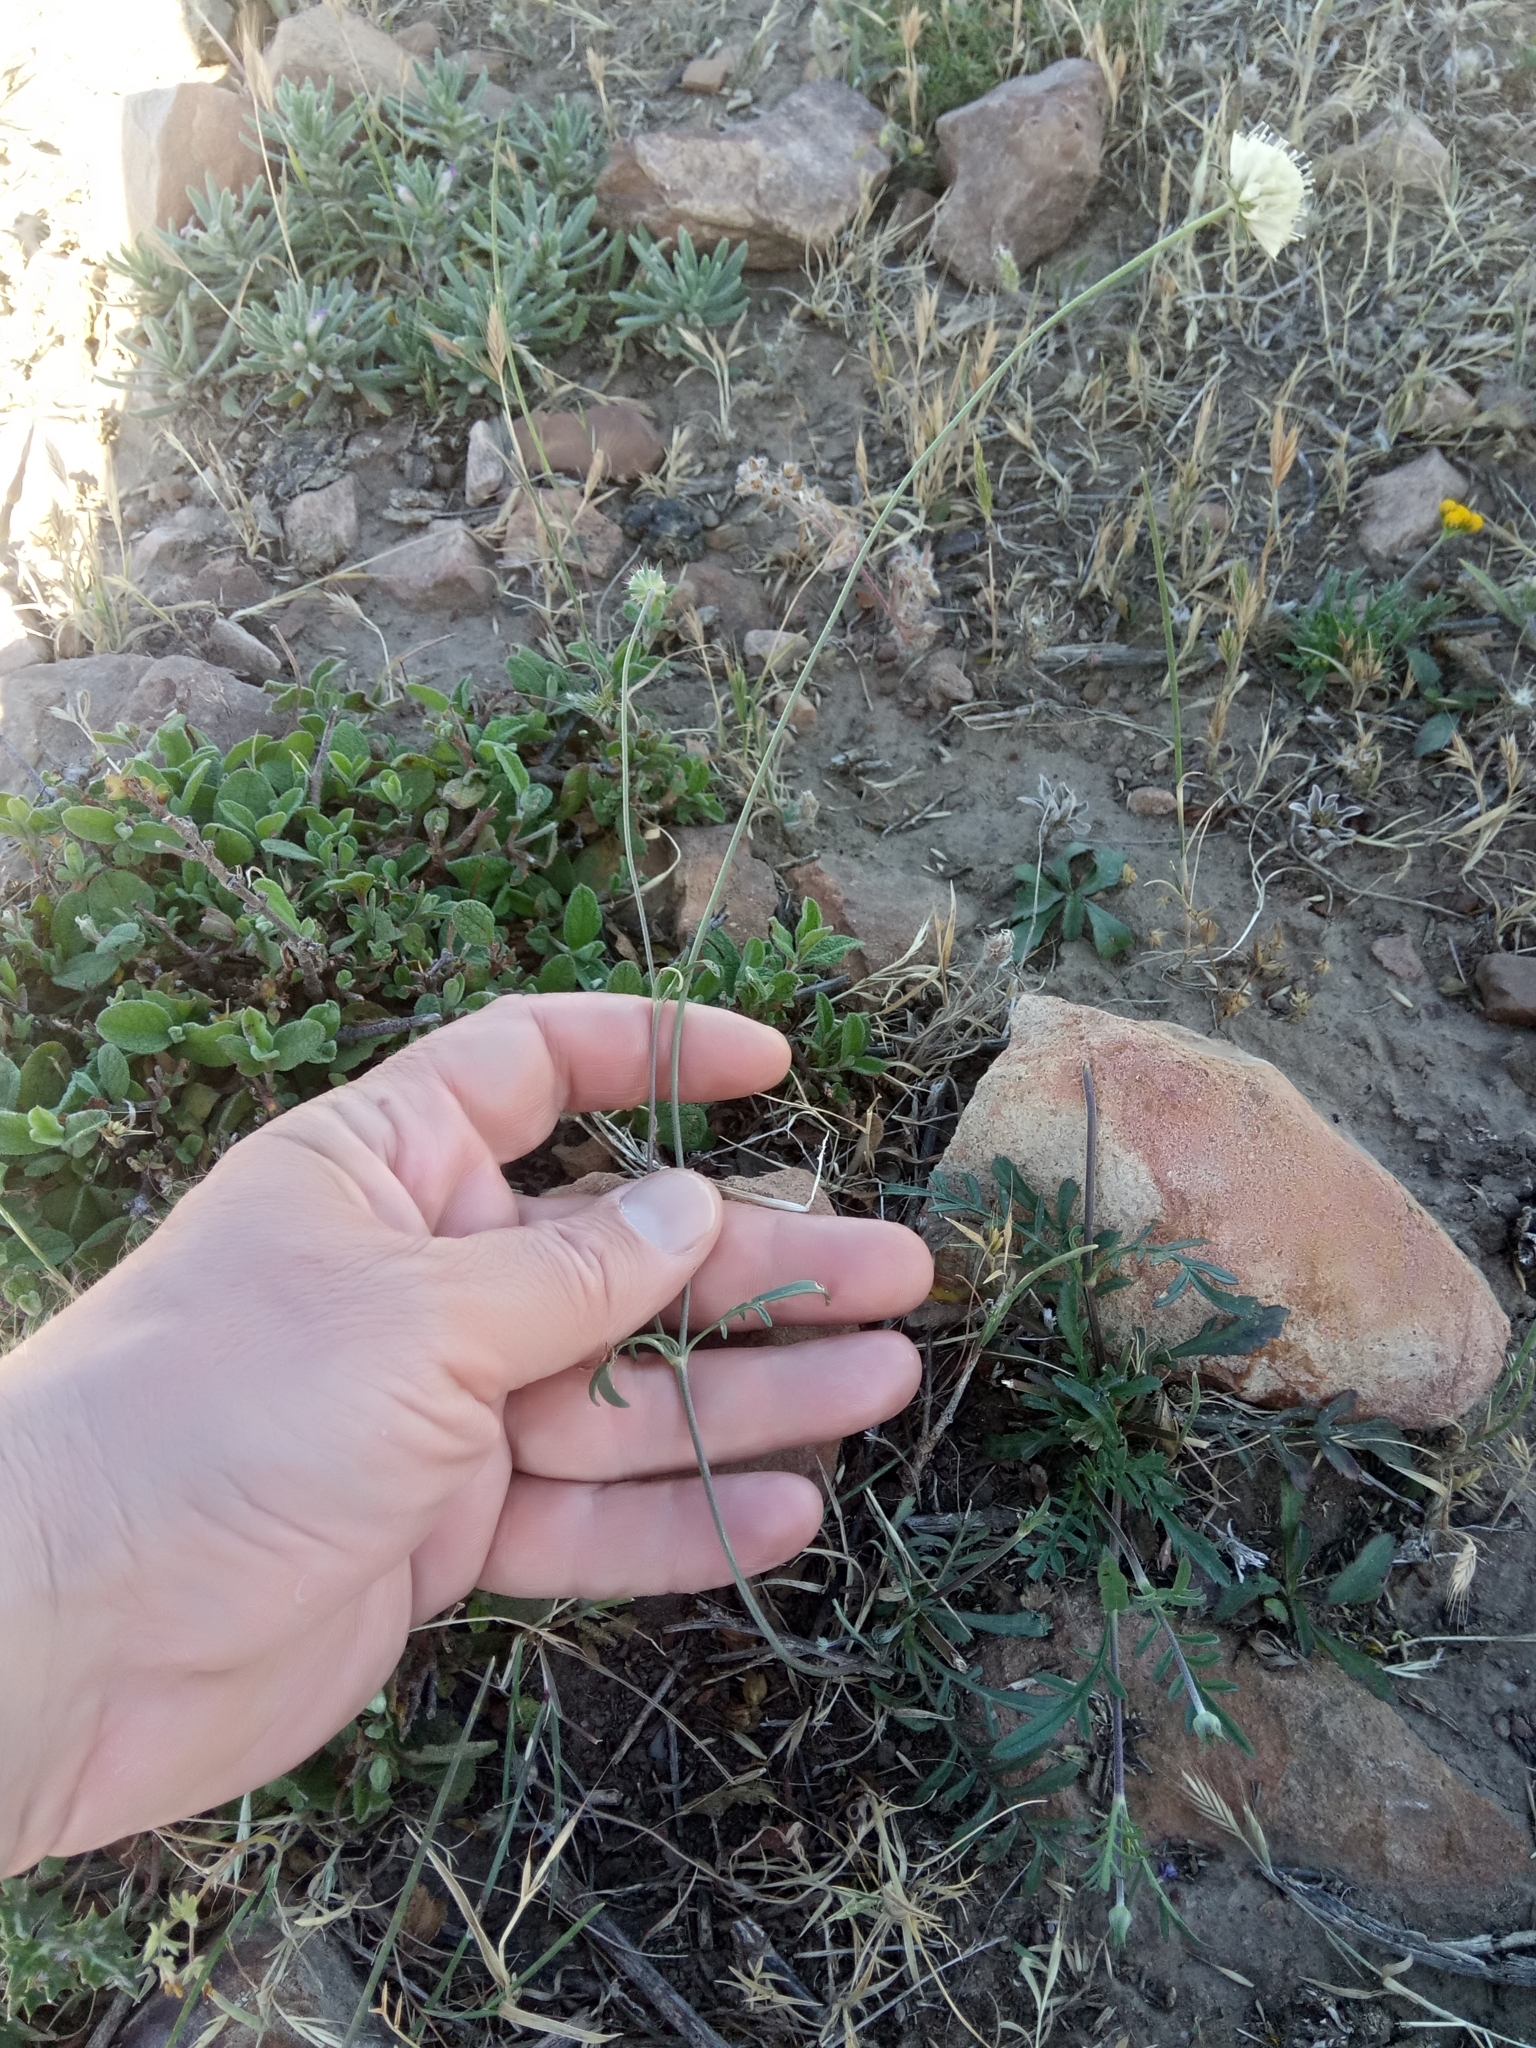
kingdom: Plantae
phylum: Tracheophyta
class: Magnoliopsida
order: Dipsacales
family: Caprifoliaceae
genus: Sixalix
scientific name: Sixalix maritima
